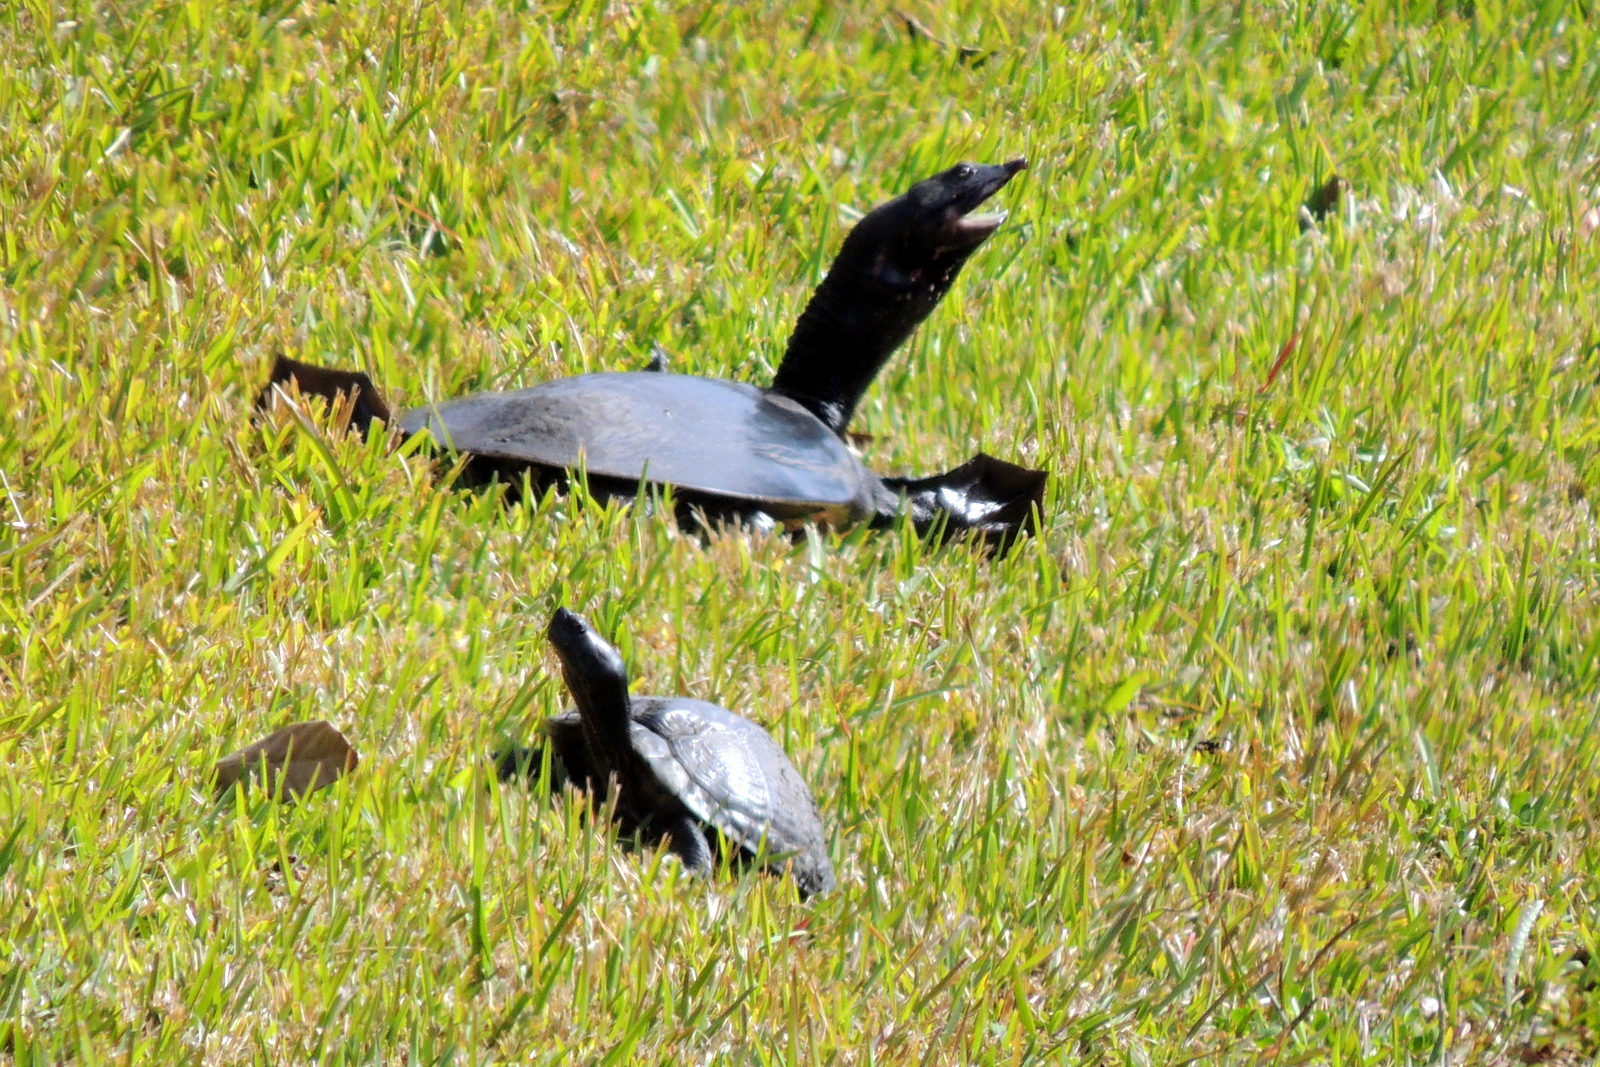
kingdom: Animalia
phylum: Chordata
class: Testudines
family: Emydidae
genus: Trachemys
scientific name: Trachemys scripta
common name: Slider
